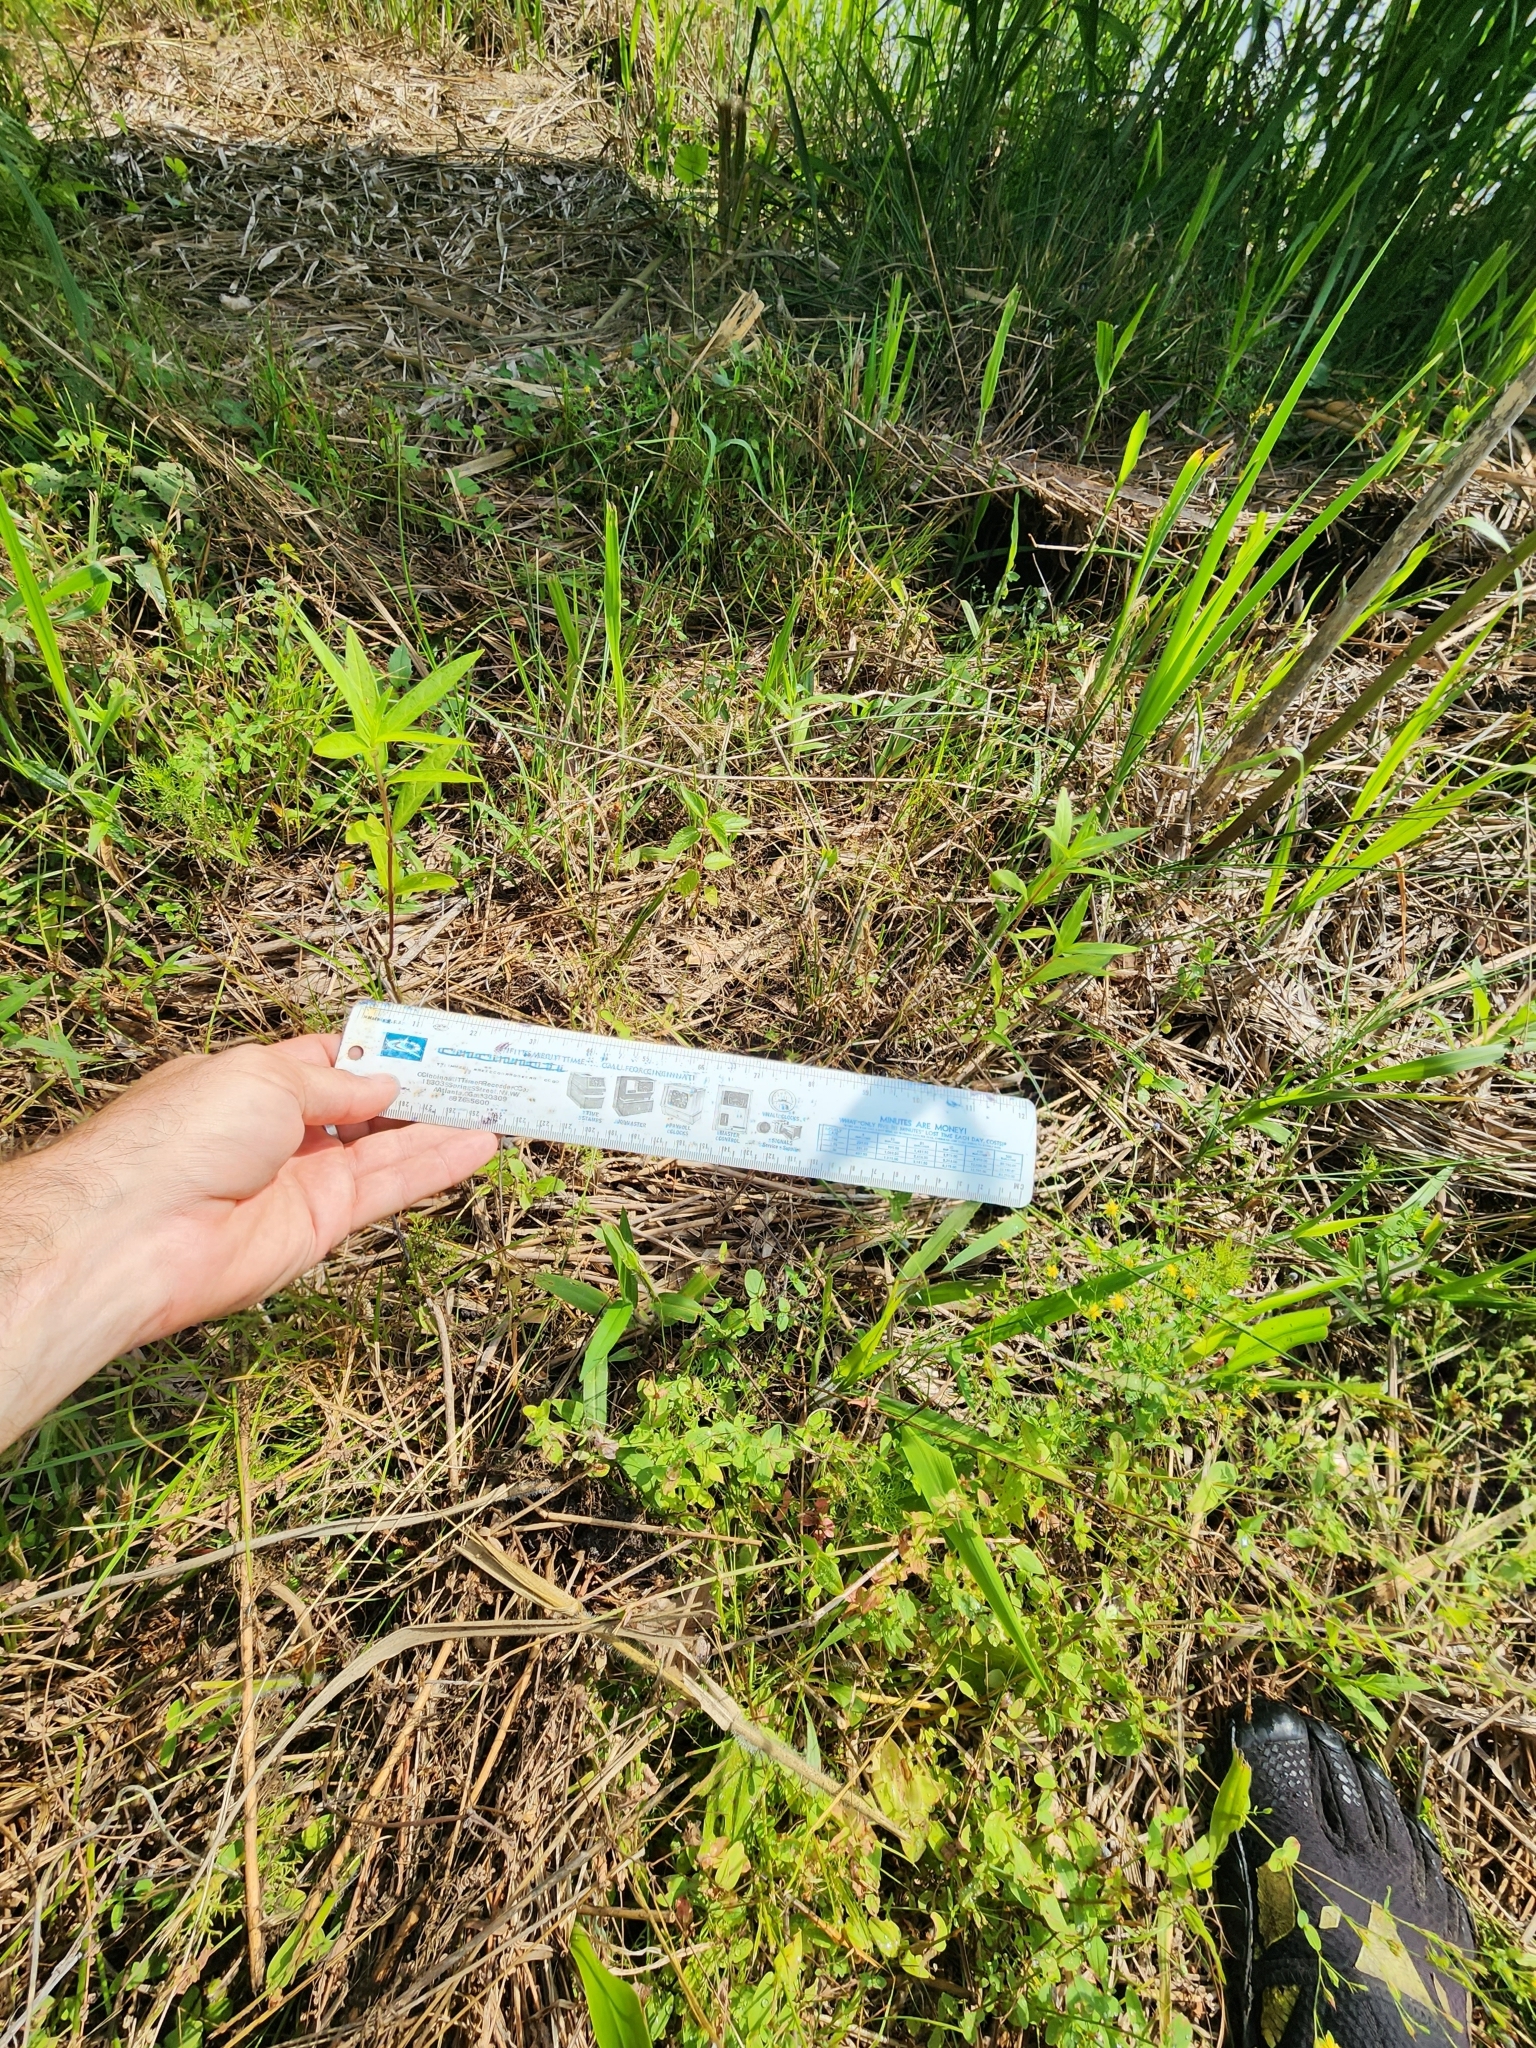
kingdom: Plantae
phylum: Tracheophyta
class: Magnoliopsida
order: Gentianales
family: Apocynaceae
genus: Asclepias
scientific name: Asclepias incarnata
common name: Swamp milkweed
